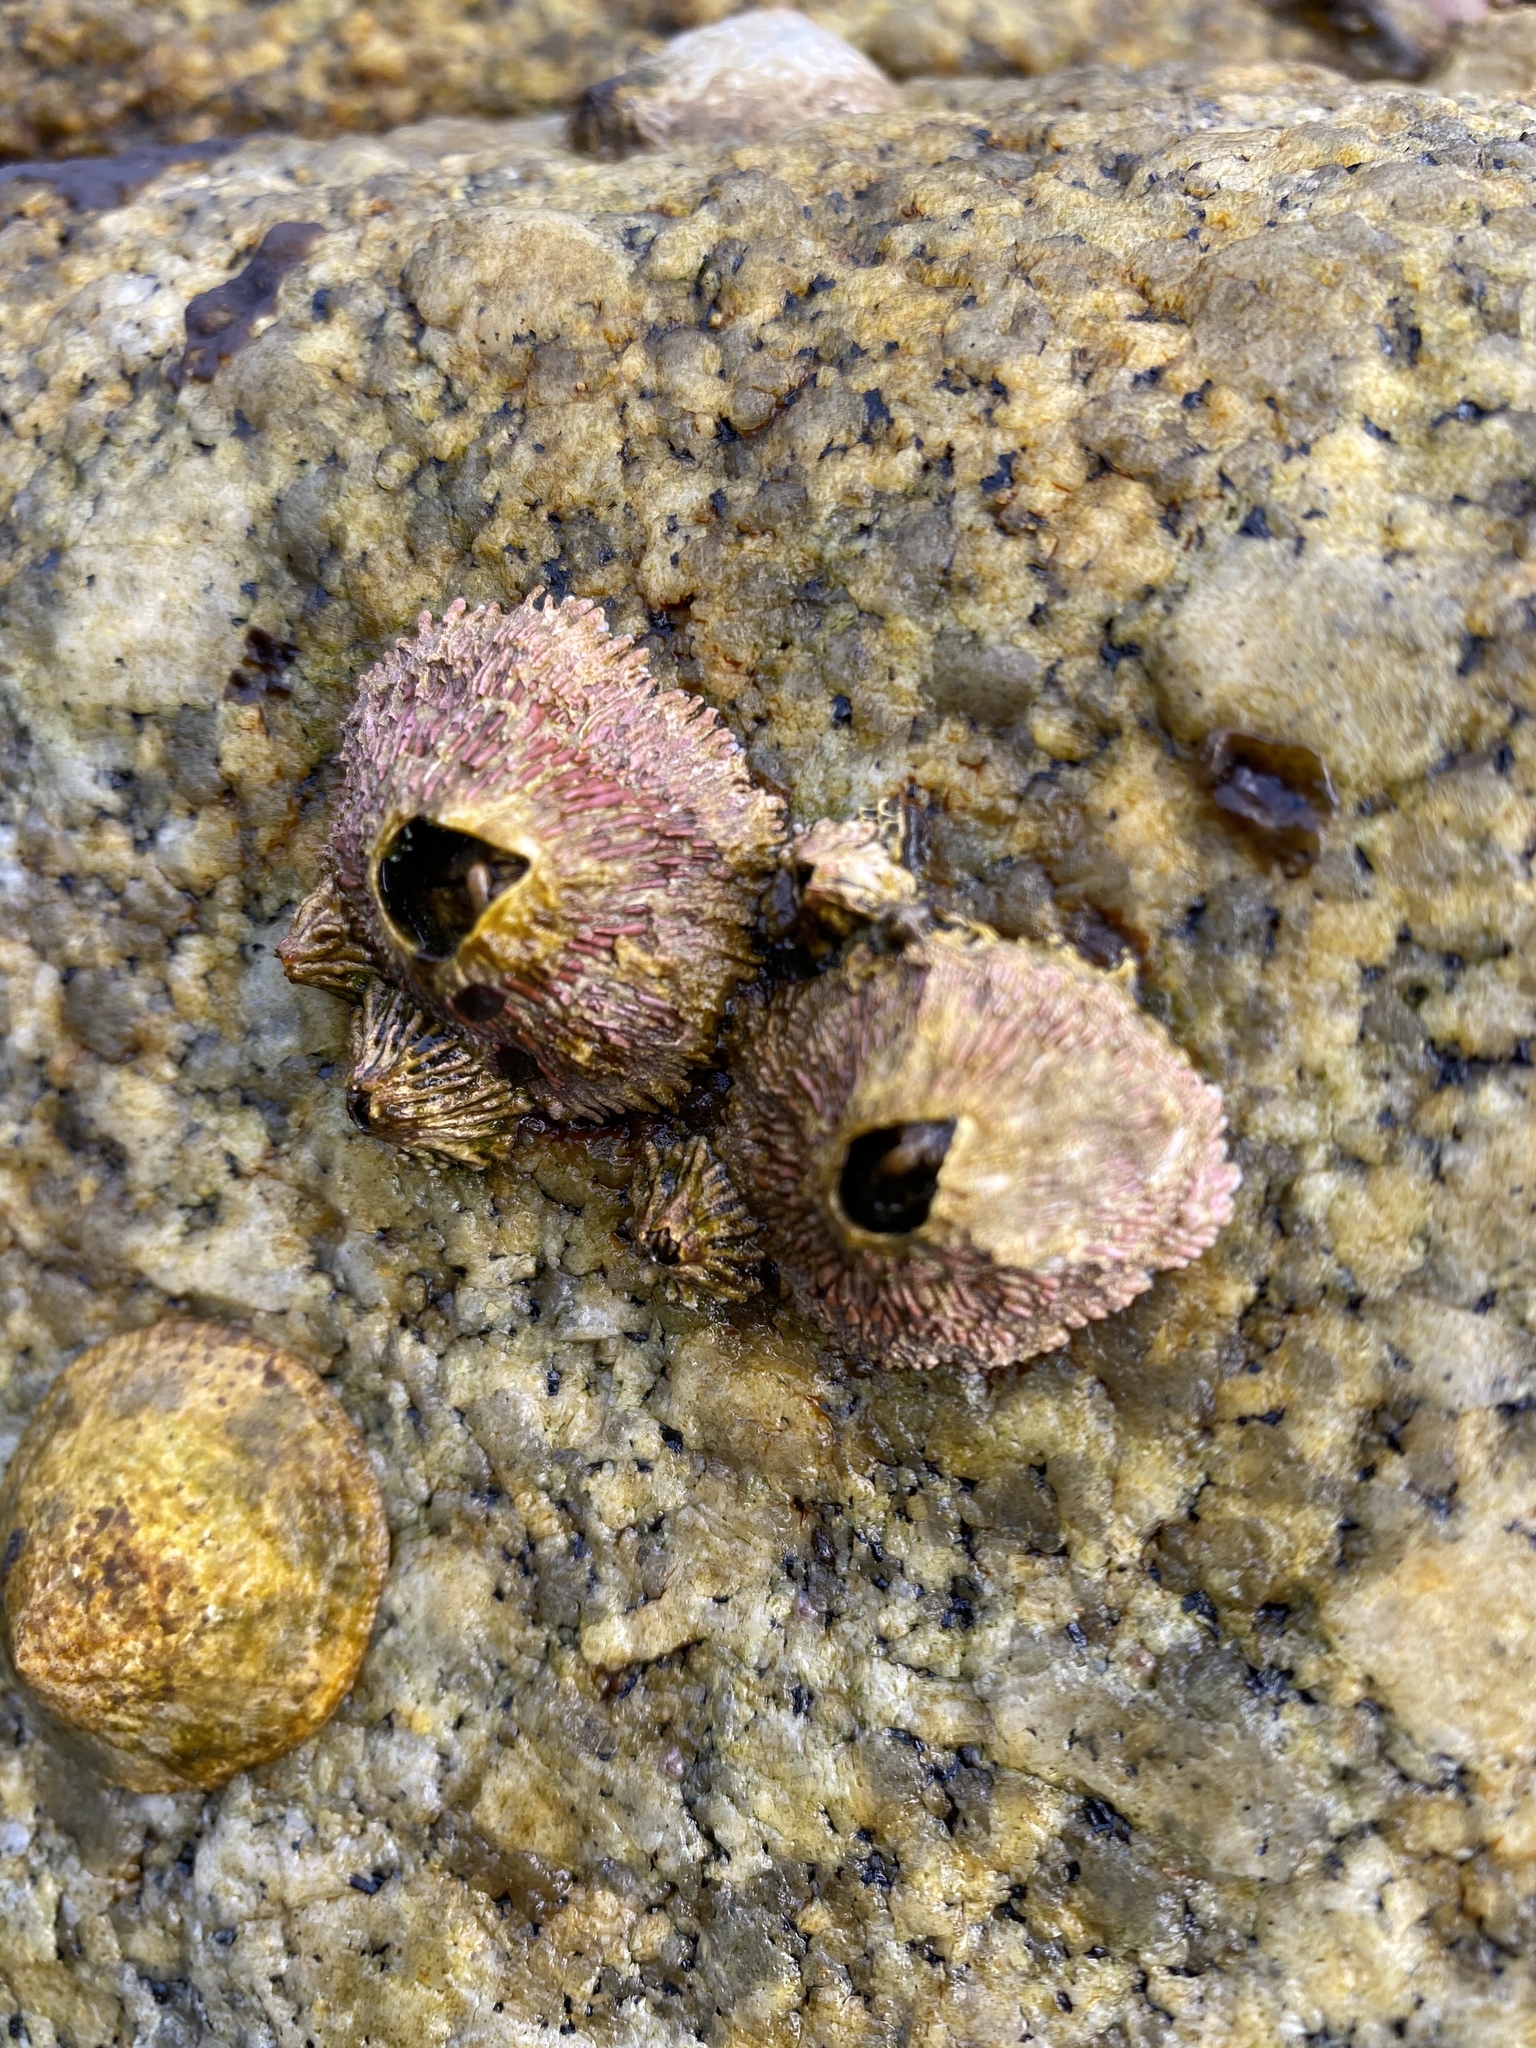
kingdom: Animalia
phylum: Arthropoda
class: Maxillopoda
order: Sessilia
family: Tetraclitidae
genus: Tetraclita
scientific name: Tetraclita rubescens
